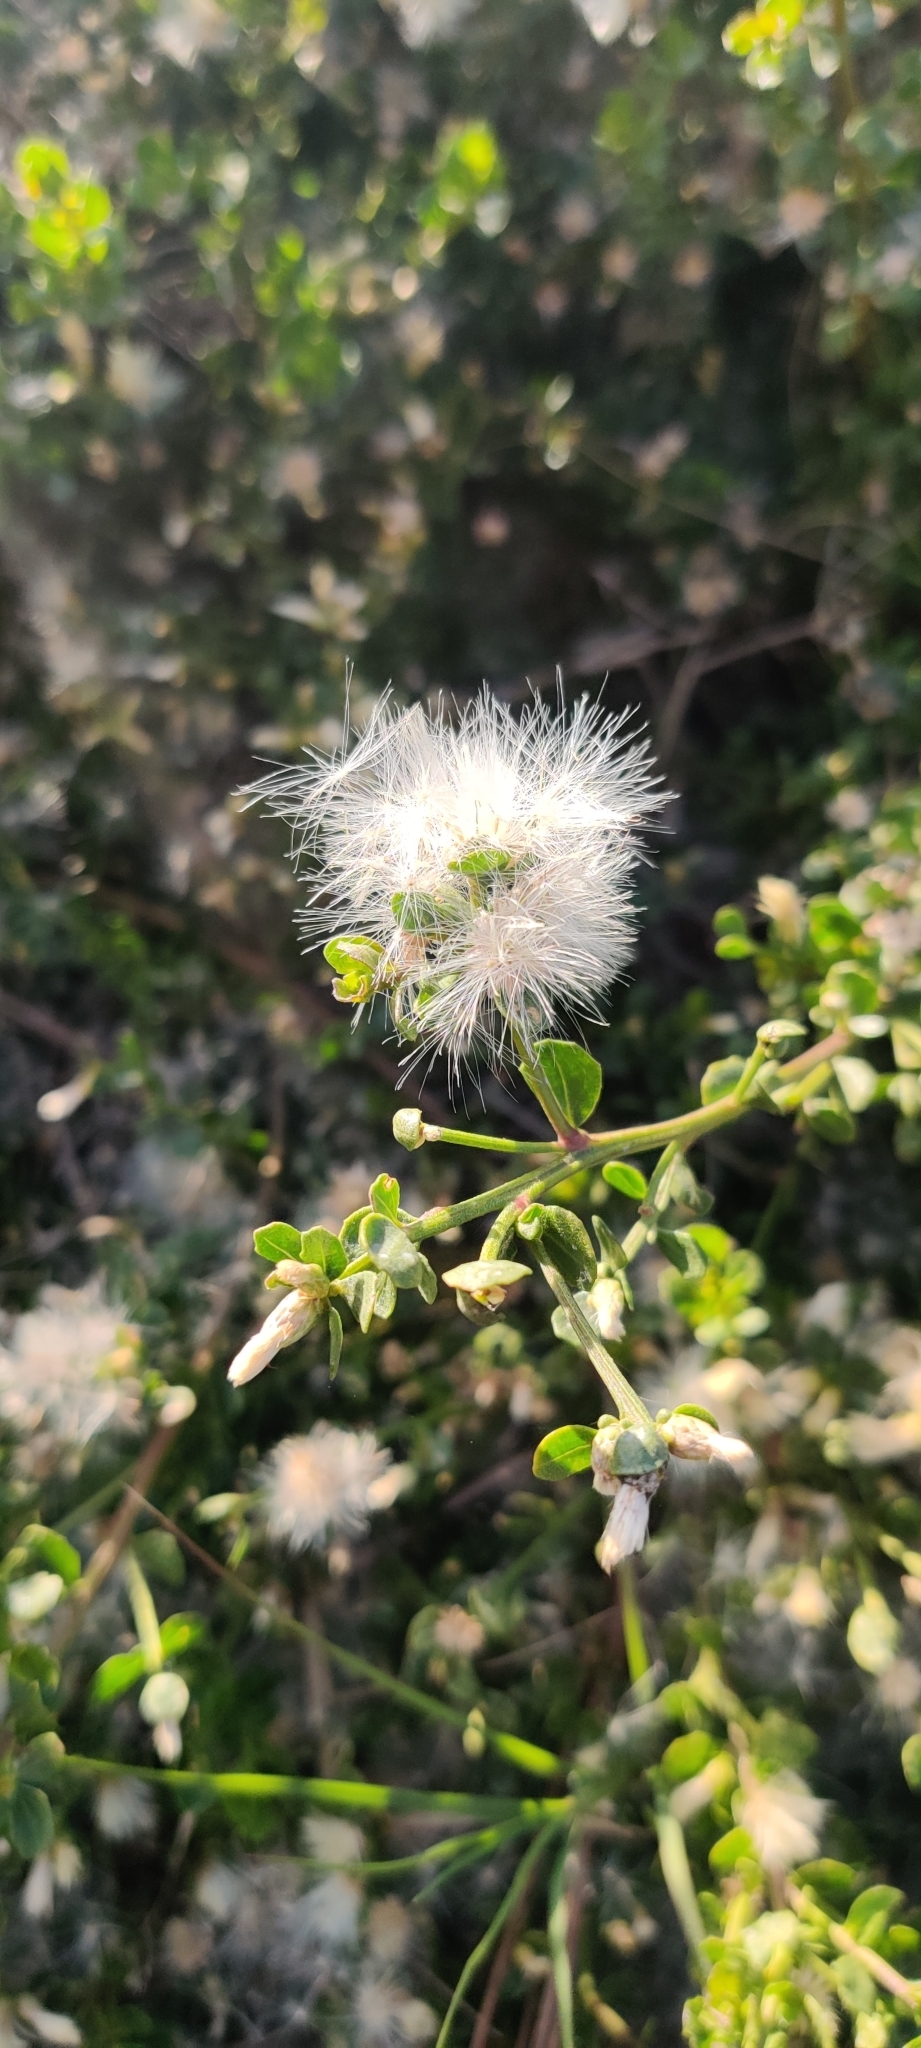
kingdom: Plantae
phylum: Tracheophyta
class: Magnoliopsida
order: Asterales
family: Asteraceae
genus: Baccharis
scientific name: Baccharis pilularis
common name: Coyotebrush
